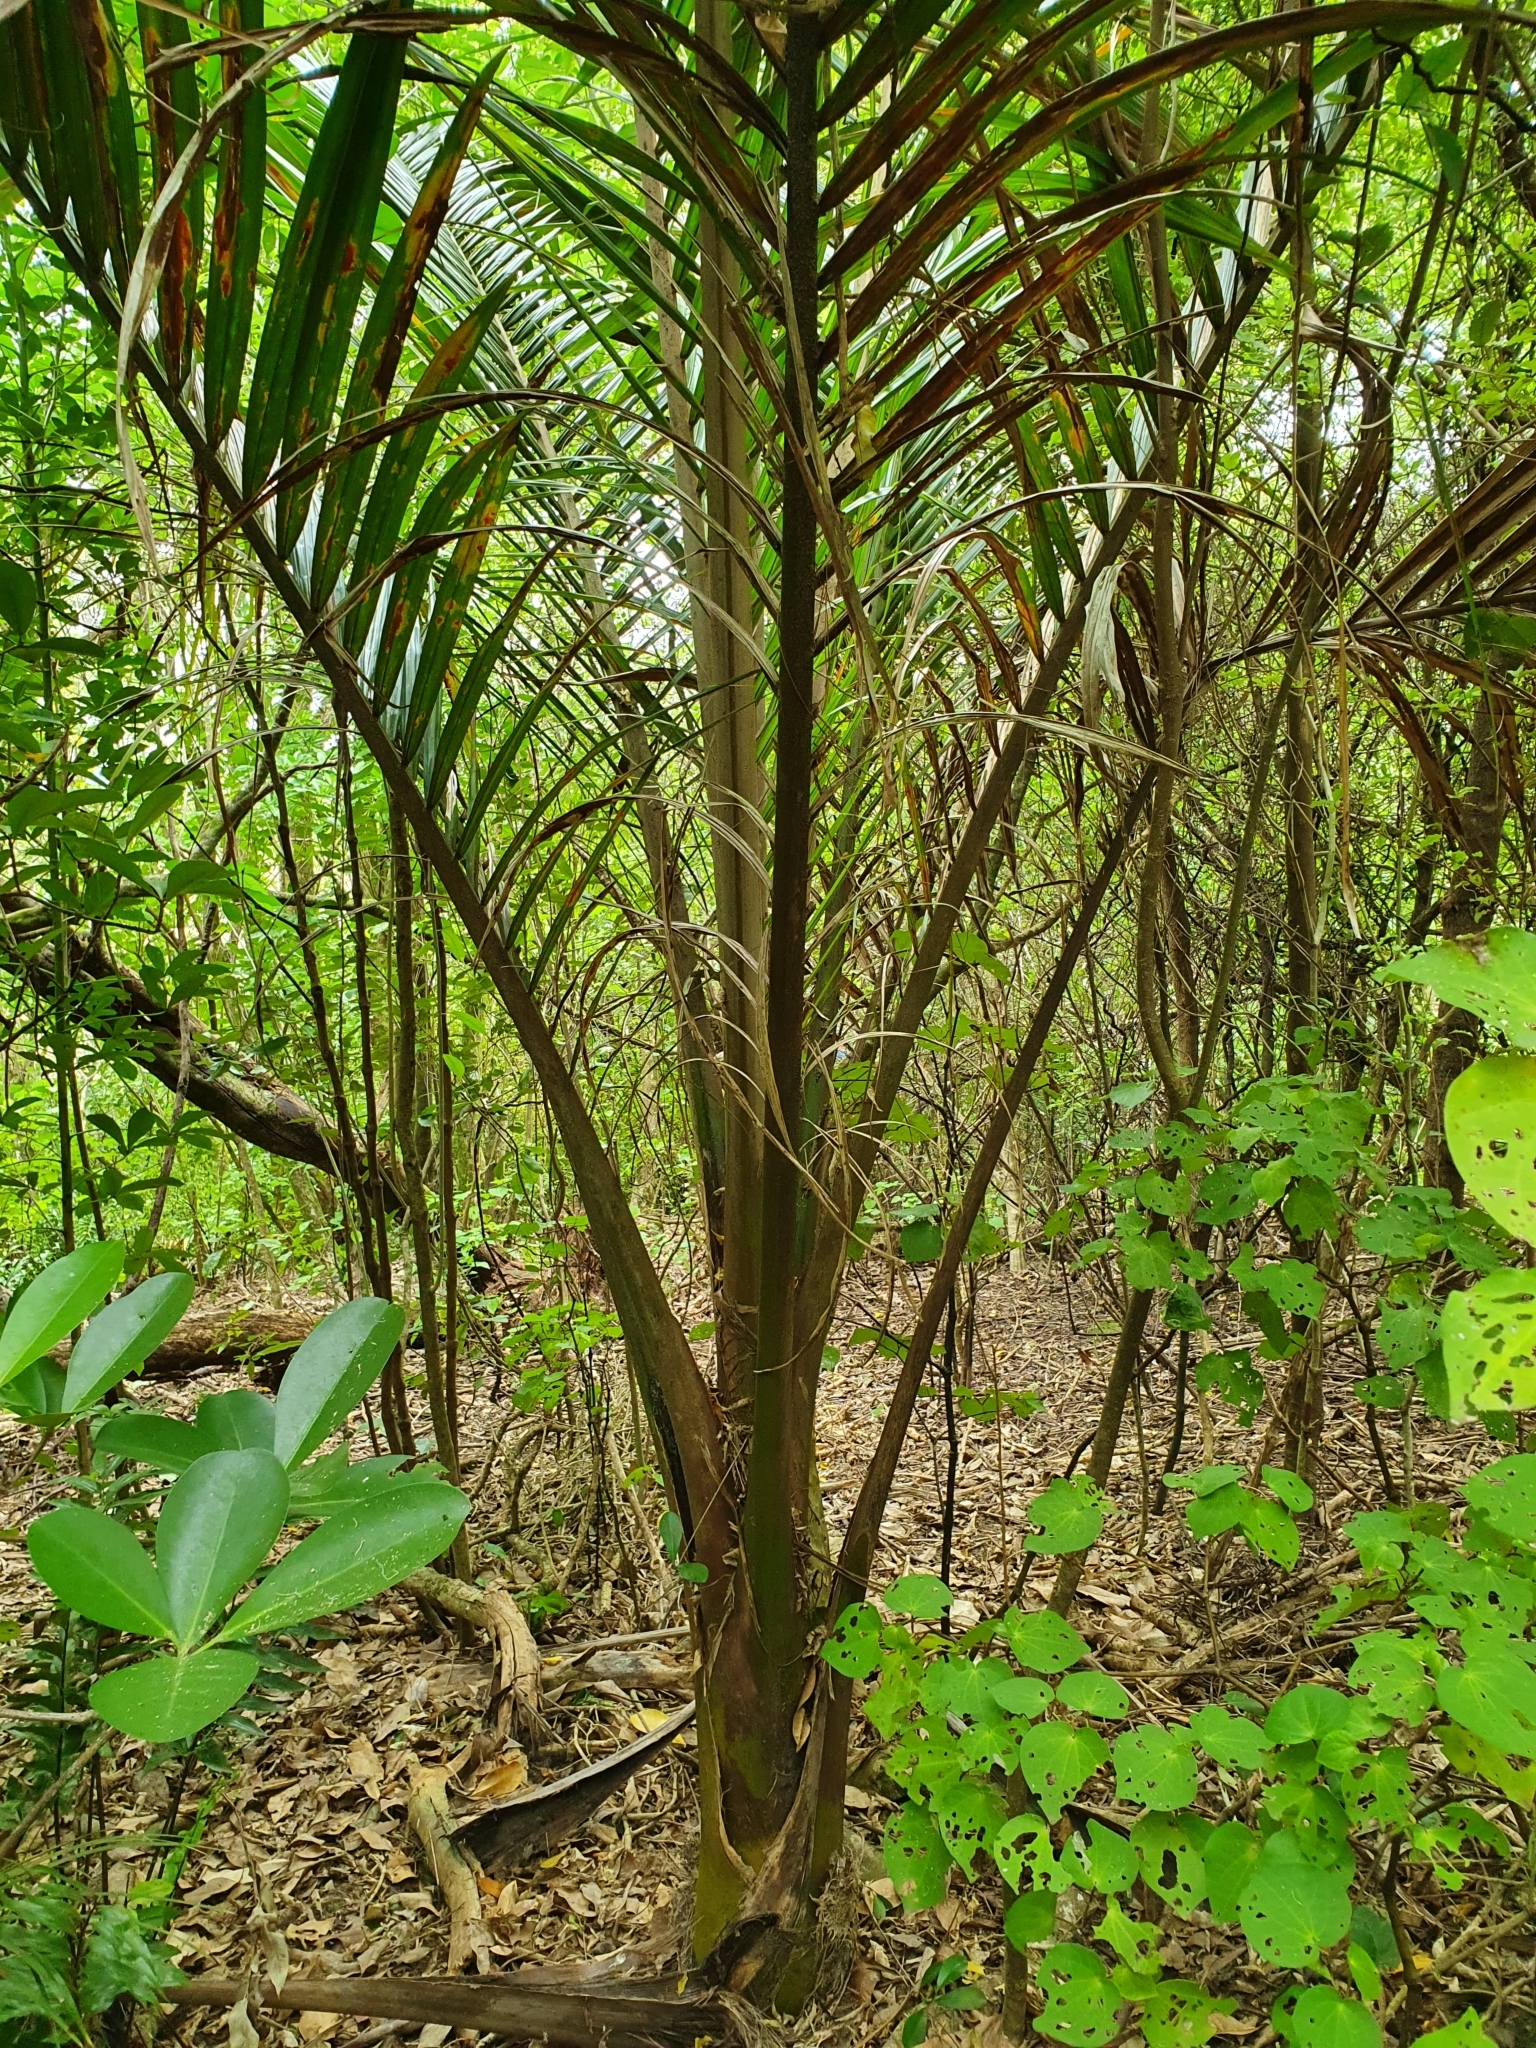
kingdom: Plantae
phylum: Tracheophyta
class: Liliopsida
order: Arecales
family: Arecaceae
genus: Rhopalostylis
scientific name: Rhopalostylis sapida
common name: Feather-duster palm
